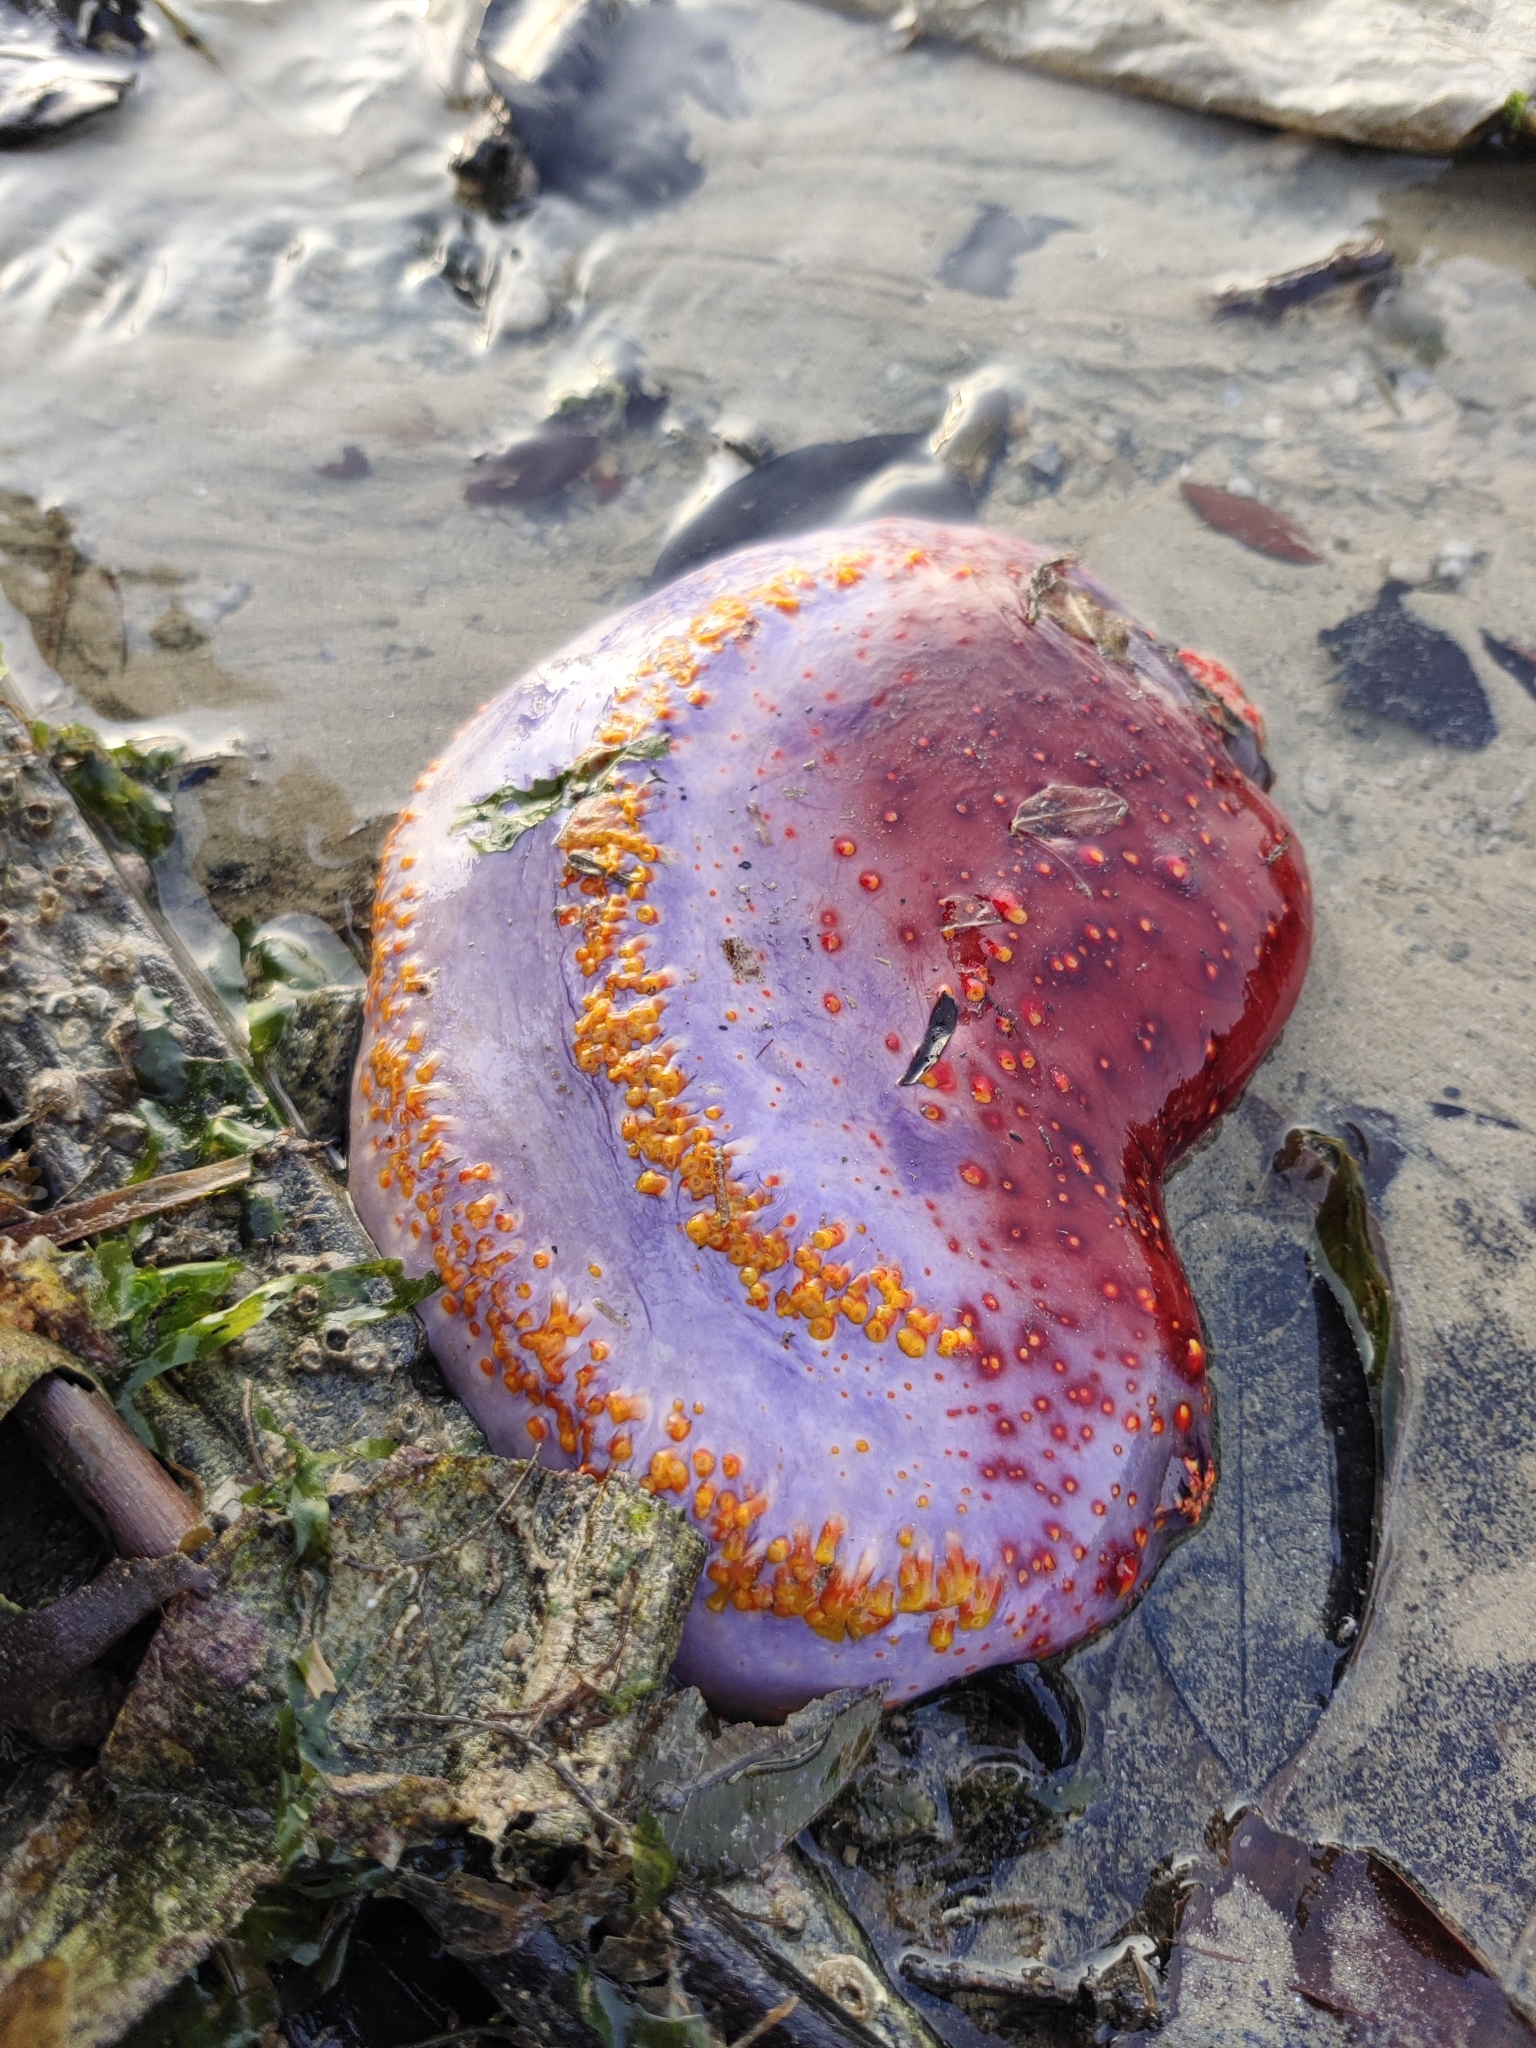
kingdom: Animalia
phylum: Echinodermata
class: Holothuroidea
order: Dendrochirotida
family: Cucumariidae
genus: Pseudocolochirus
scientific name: Pseudocolochirus violaceus
